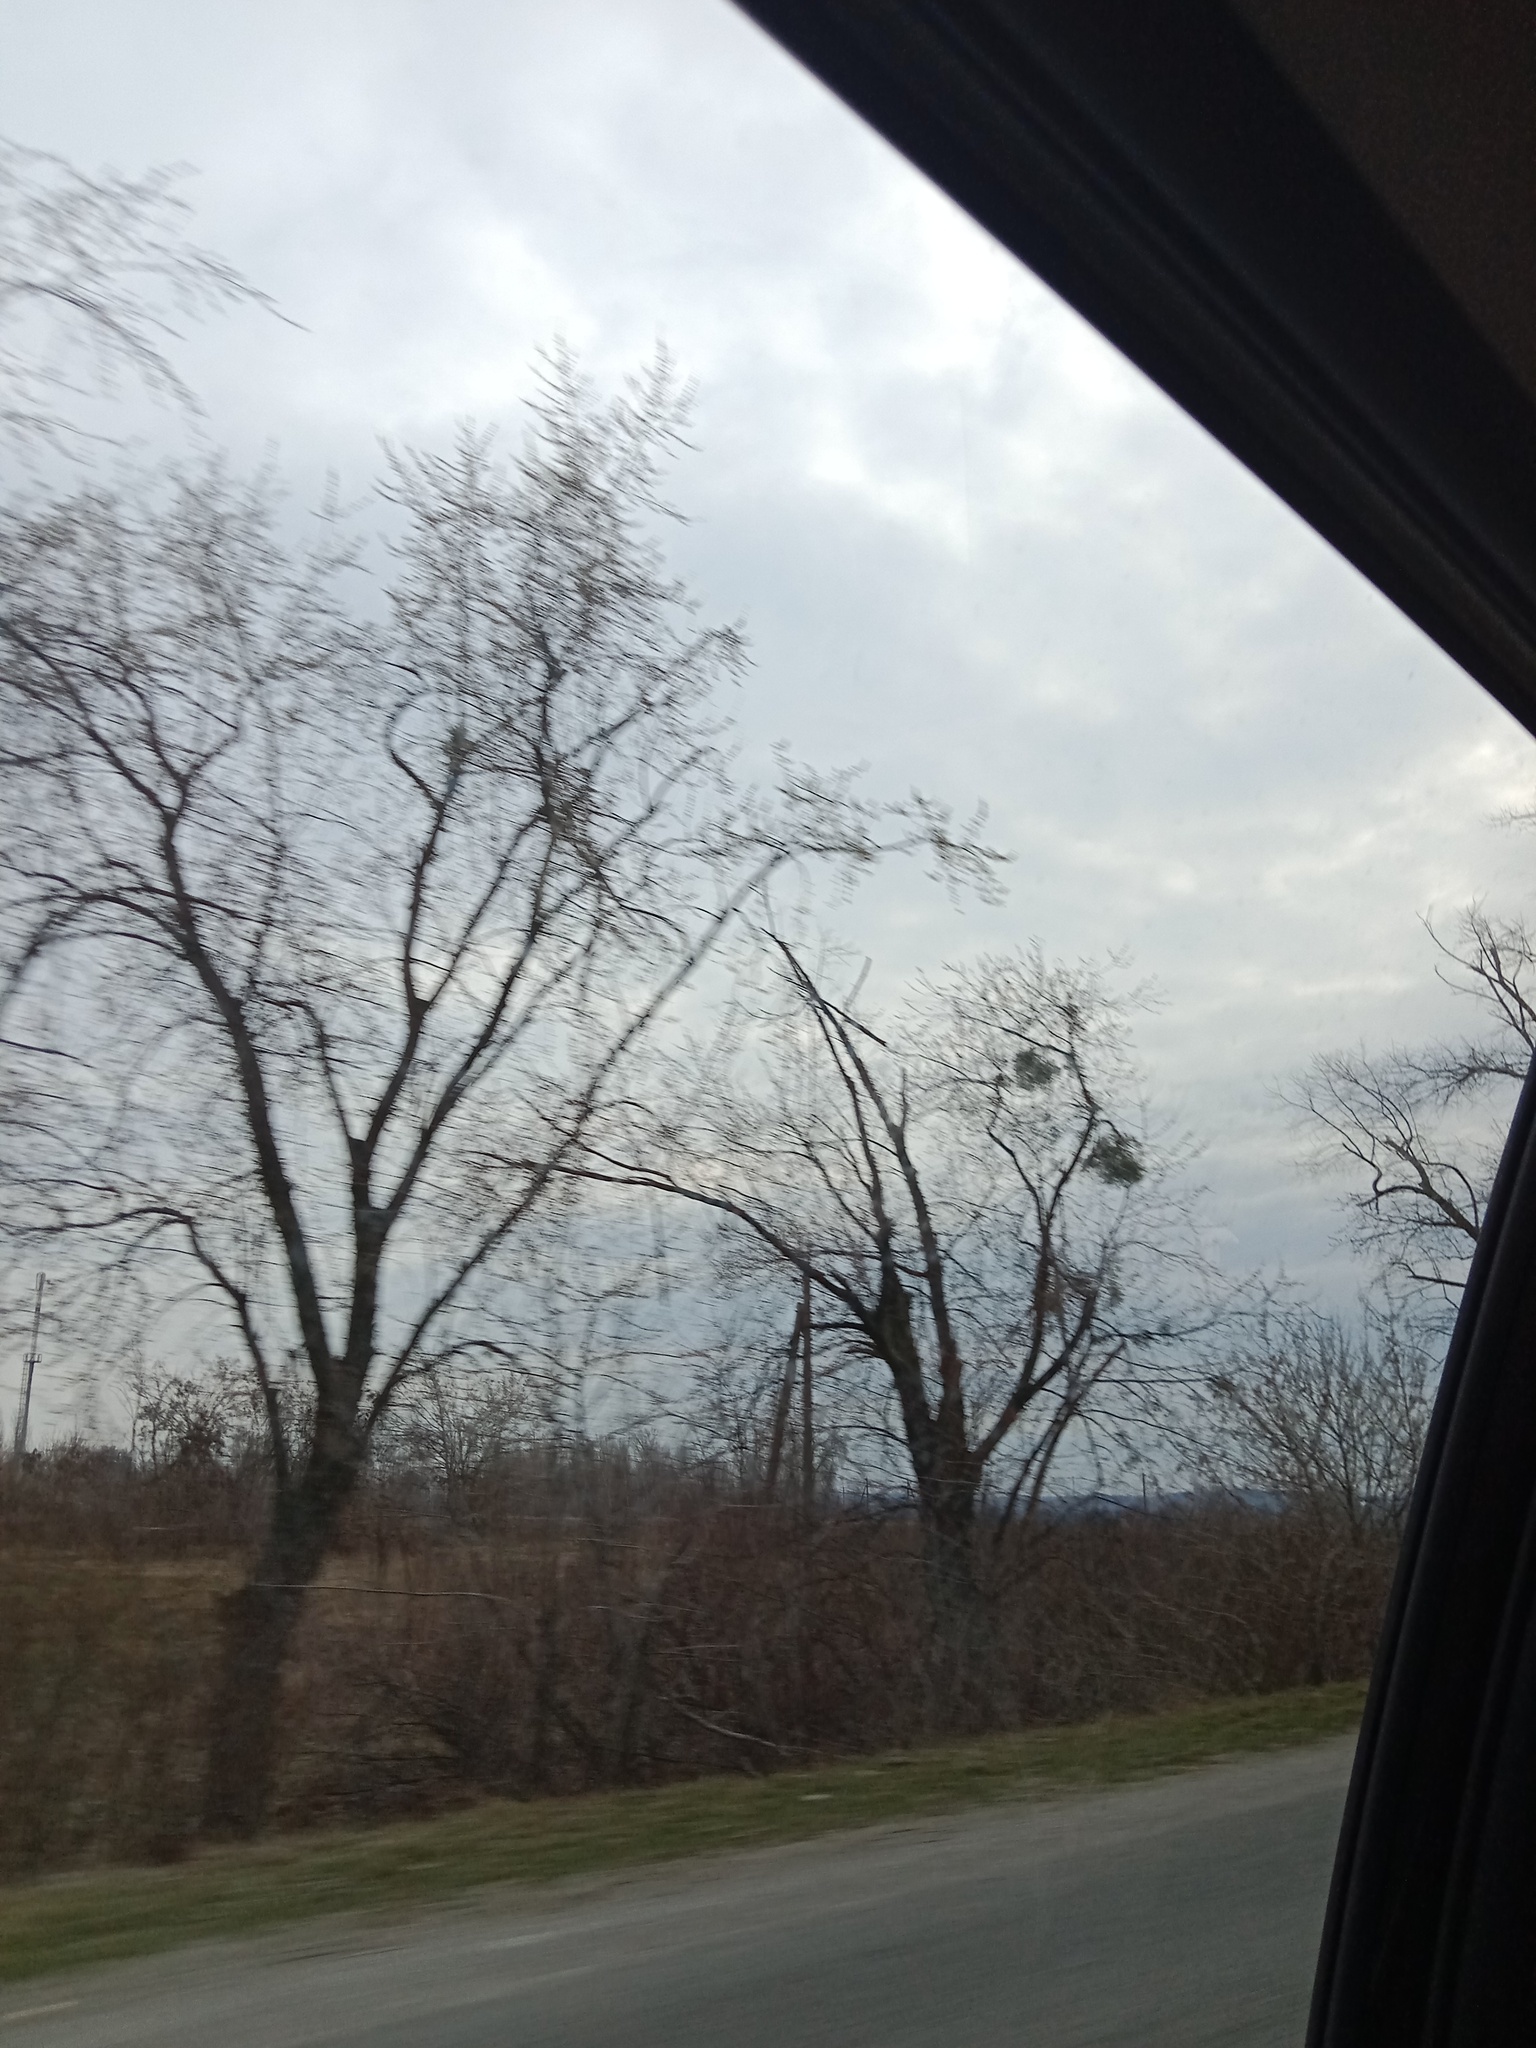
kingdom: Plantae
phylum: Tracheophyta
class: Magnoliopsida
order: Santalales
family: Viscaceae
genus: Viscum
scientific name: Viscum album
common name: Mistletoe
